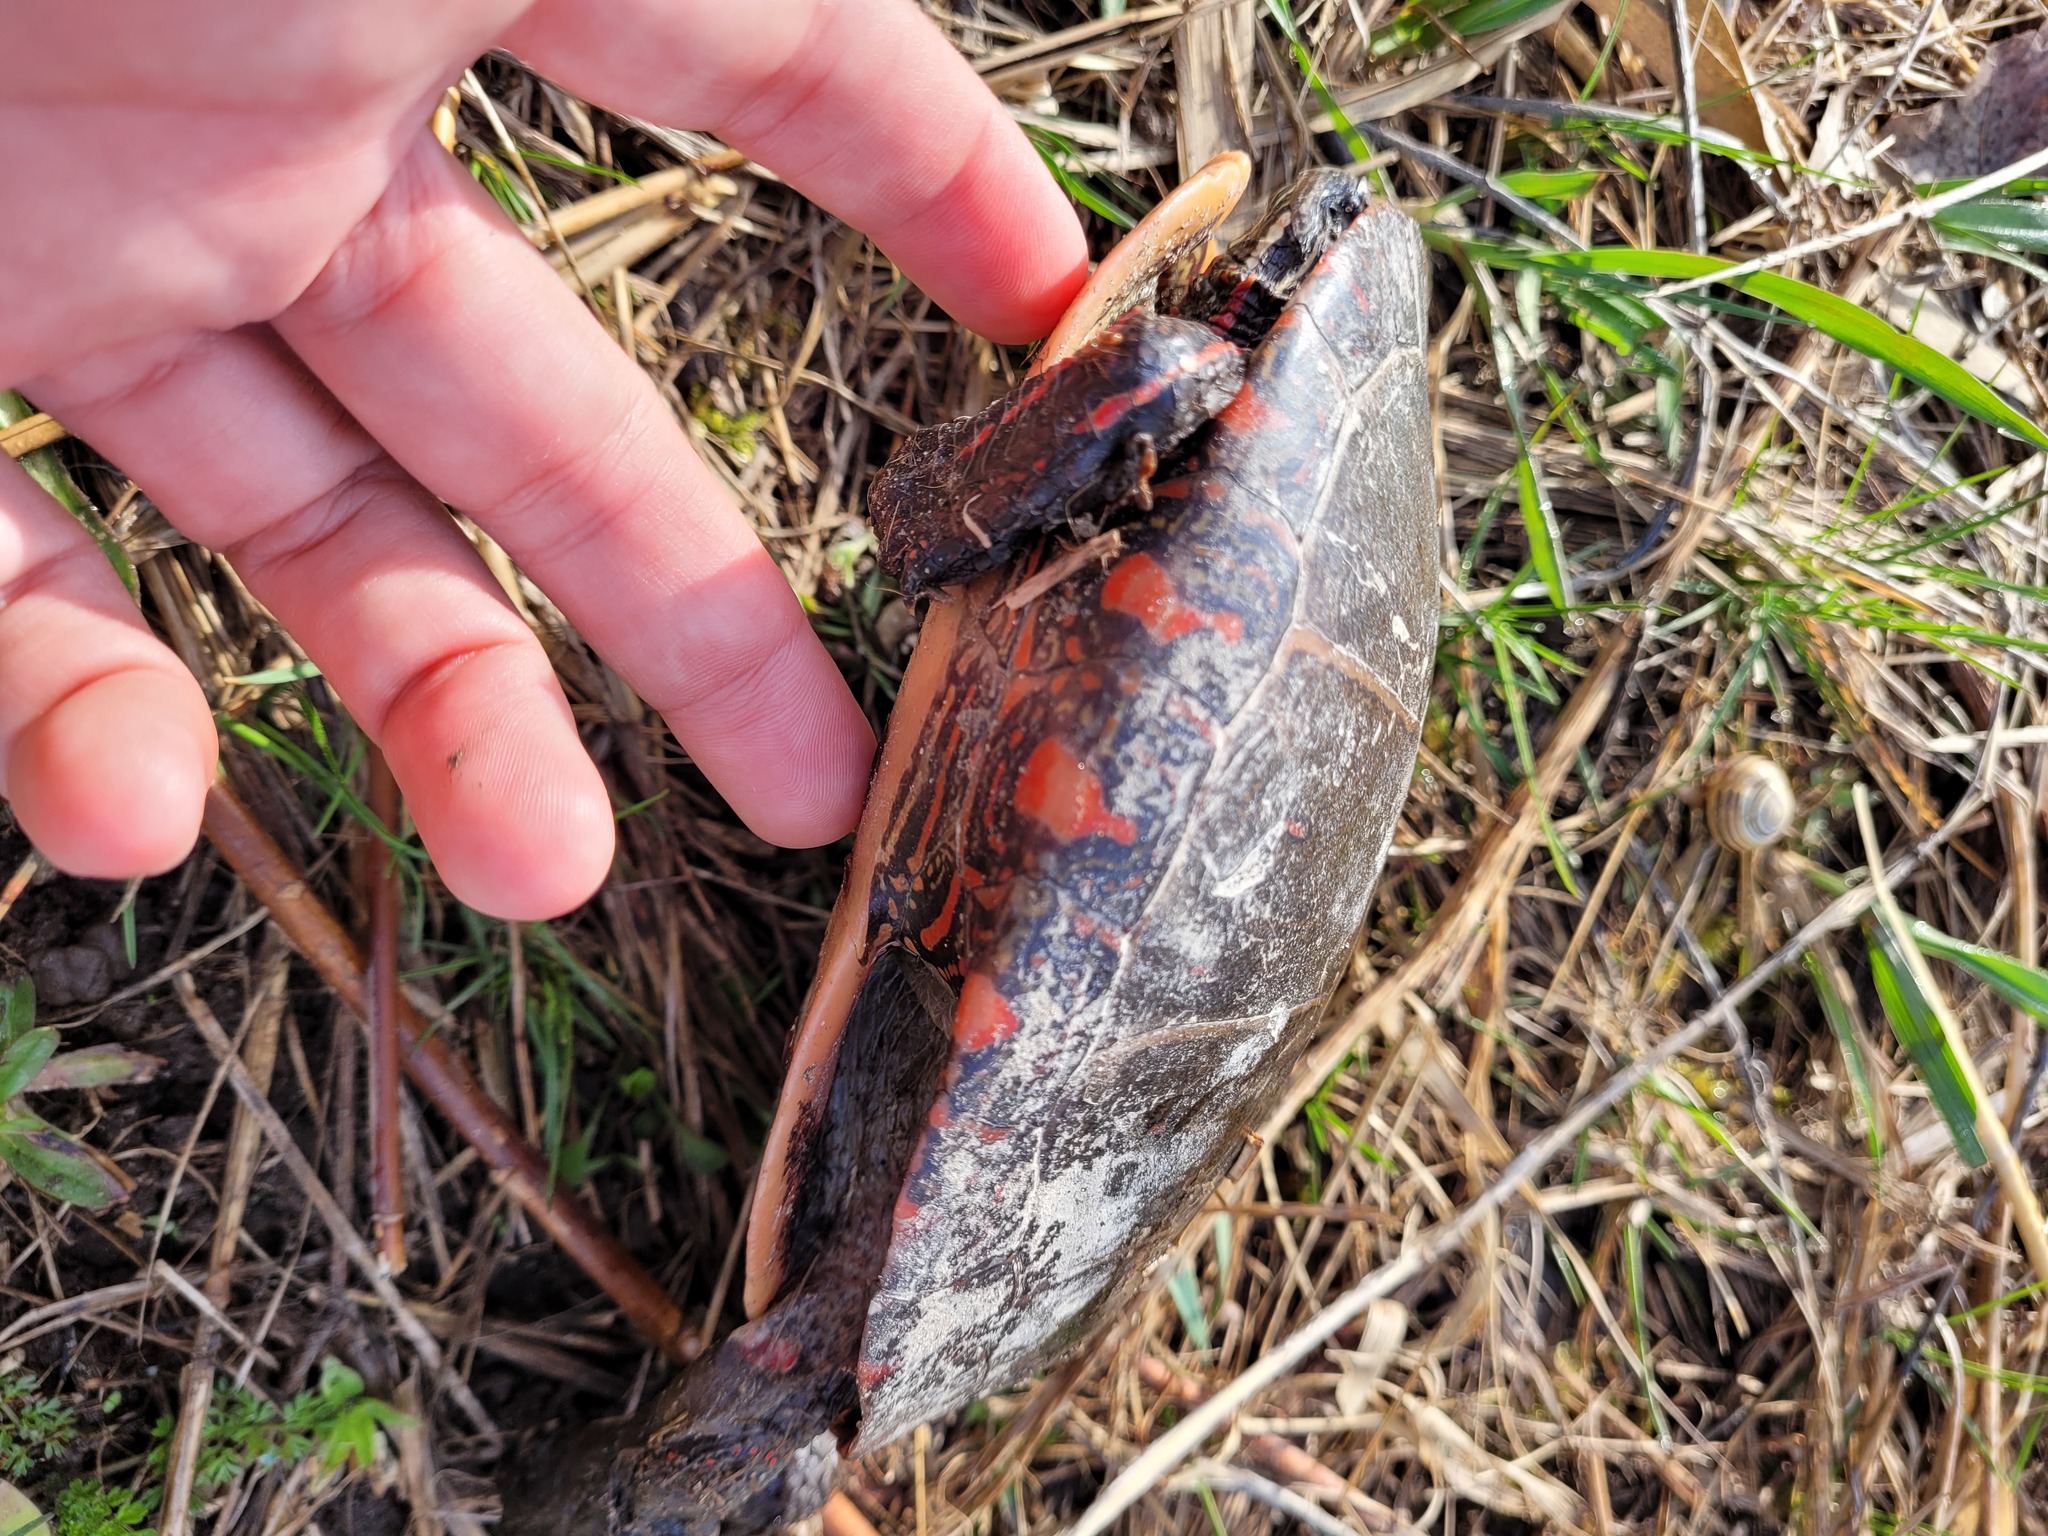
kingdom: Animalia
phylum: Chordata
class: Testudines
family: Emydidae
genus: Chrysemys
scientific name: Chrysemys picta
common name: Painted turtle
